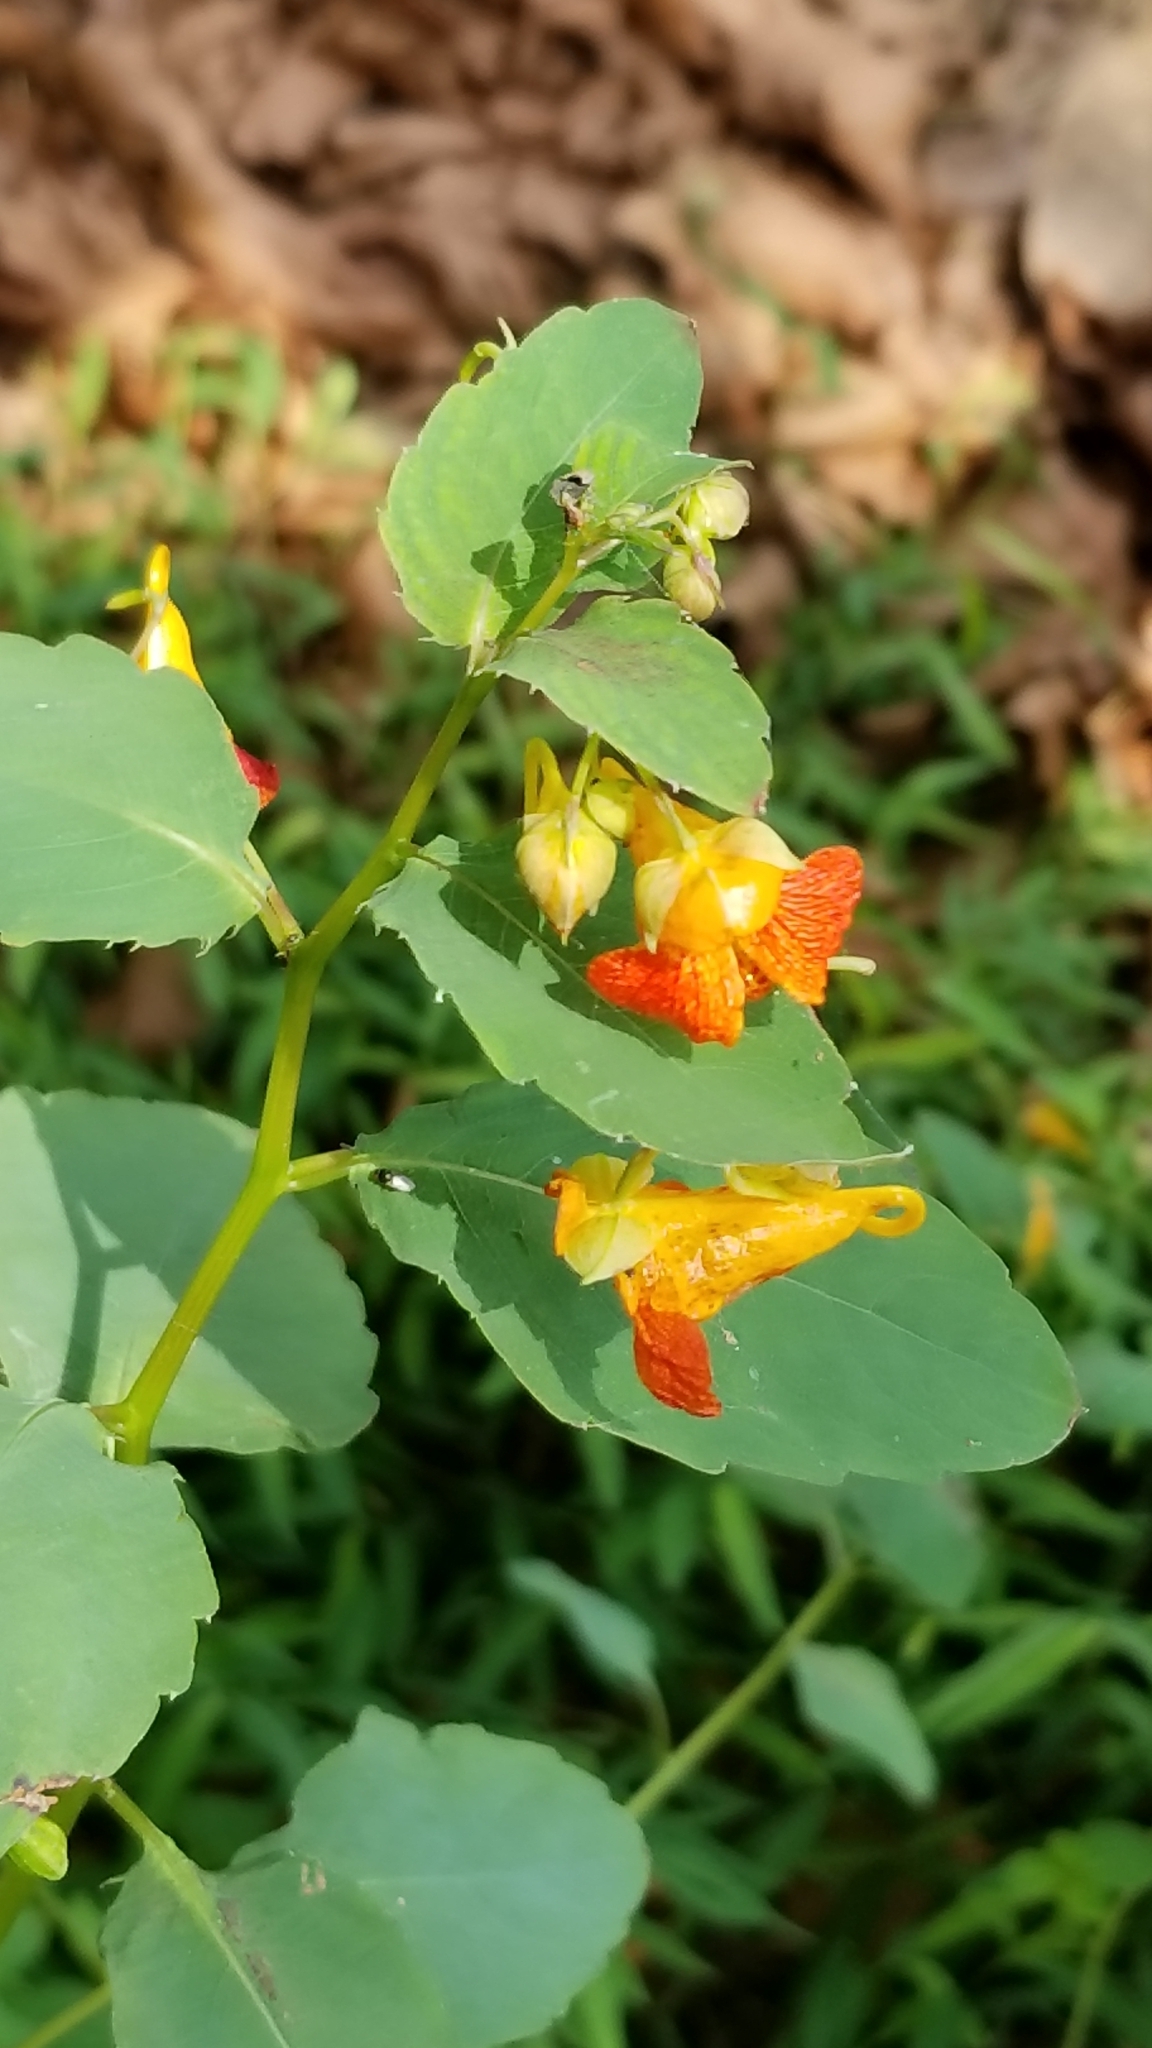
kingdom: Plantae
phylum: Tracheophyta
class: Magnoliopsida
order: Ericales
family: Balsaminaceae
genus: Impatiens
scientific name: Impatiens capensis
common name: Orange balsam
